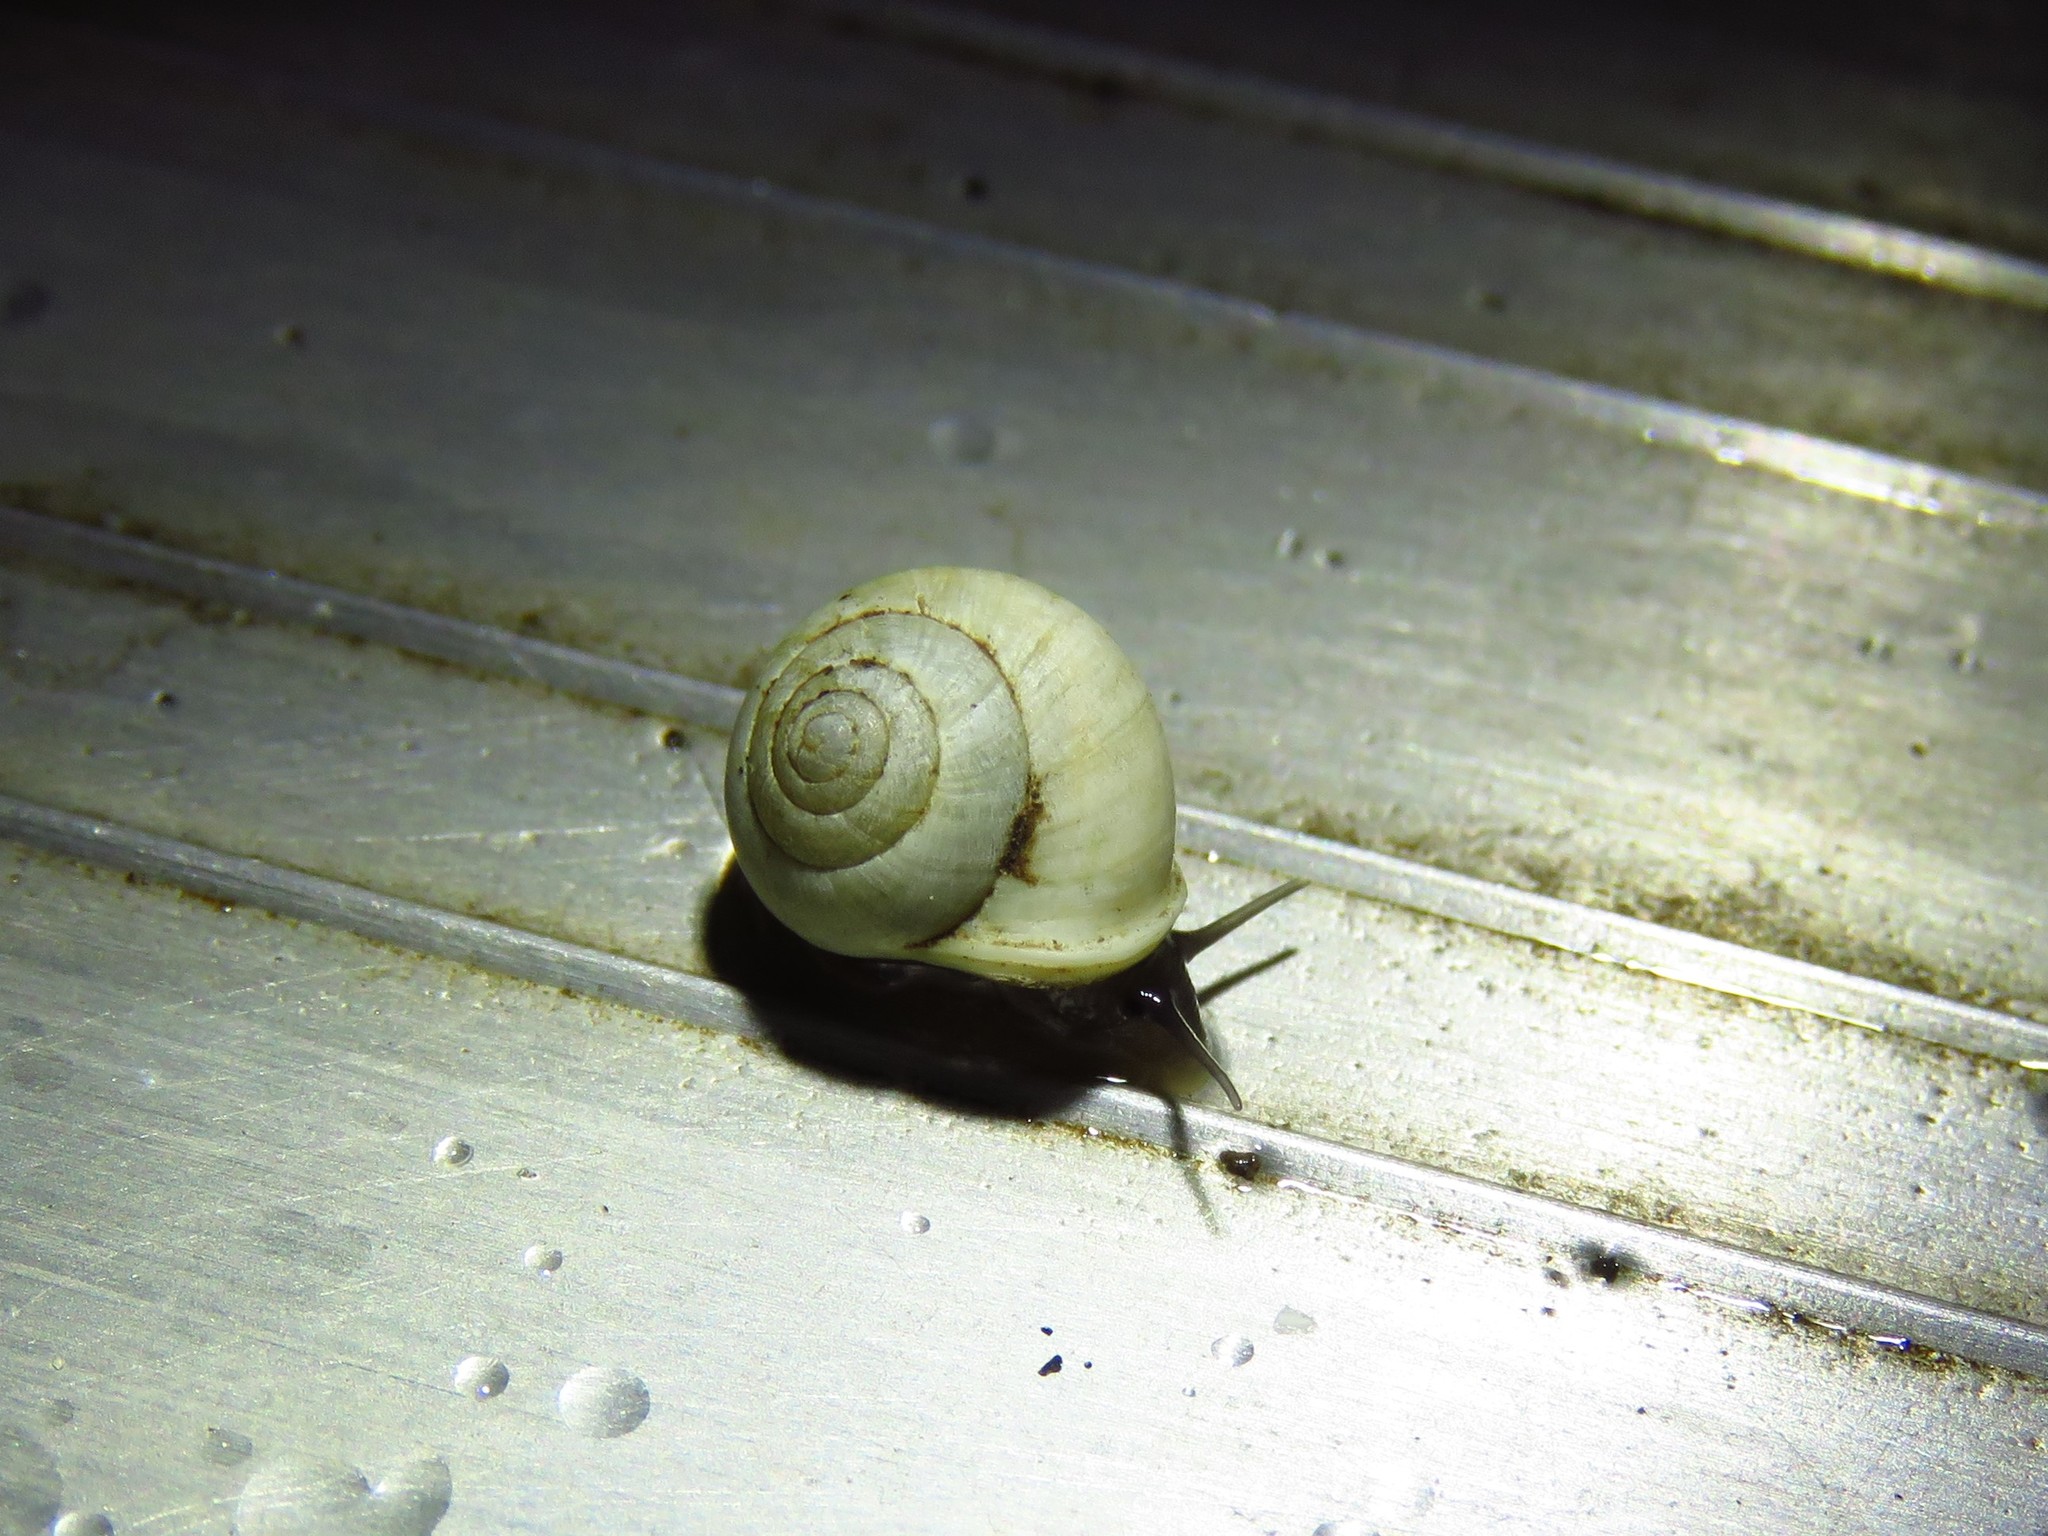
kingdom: Animalia
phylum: Mollusca
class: Gastropoda
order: Cycloneritida
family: Helicinidae
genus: Helicina
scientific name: Helicina orbiculata
